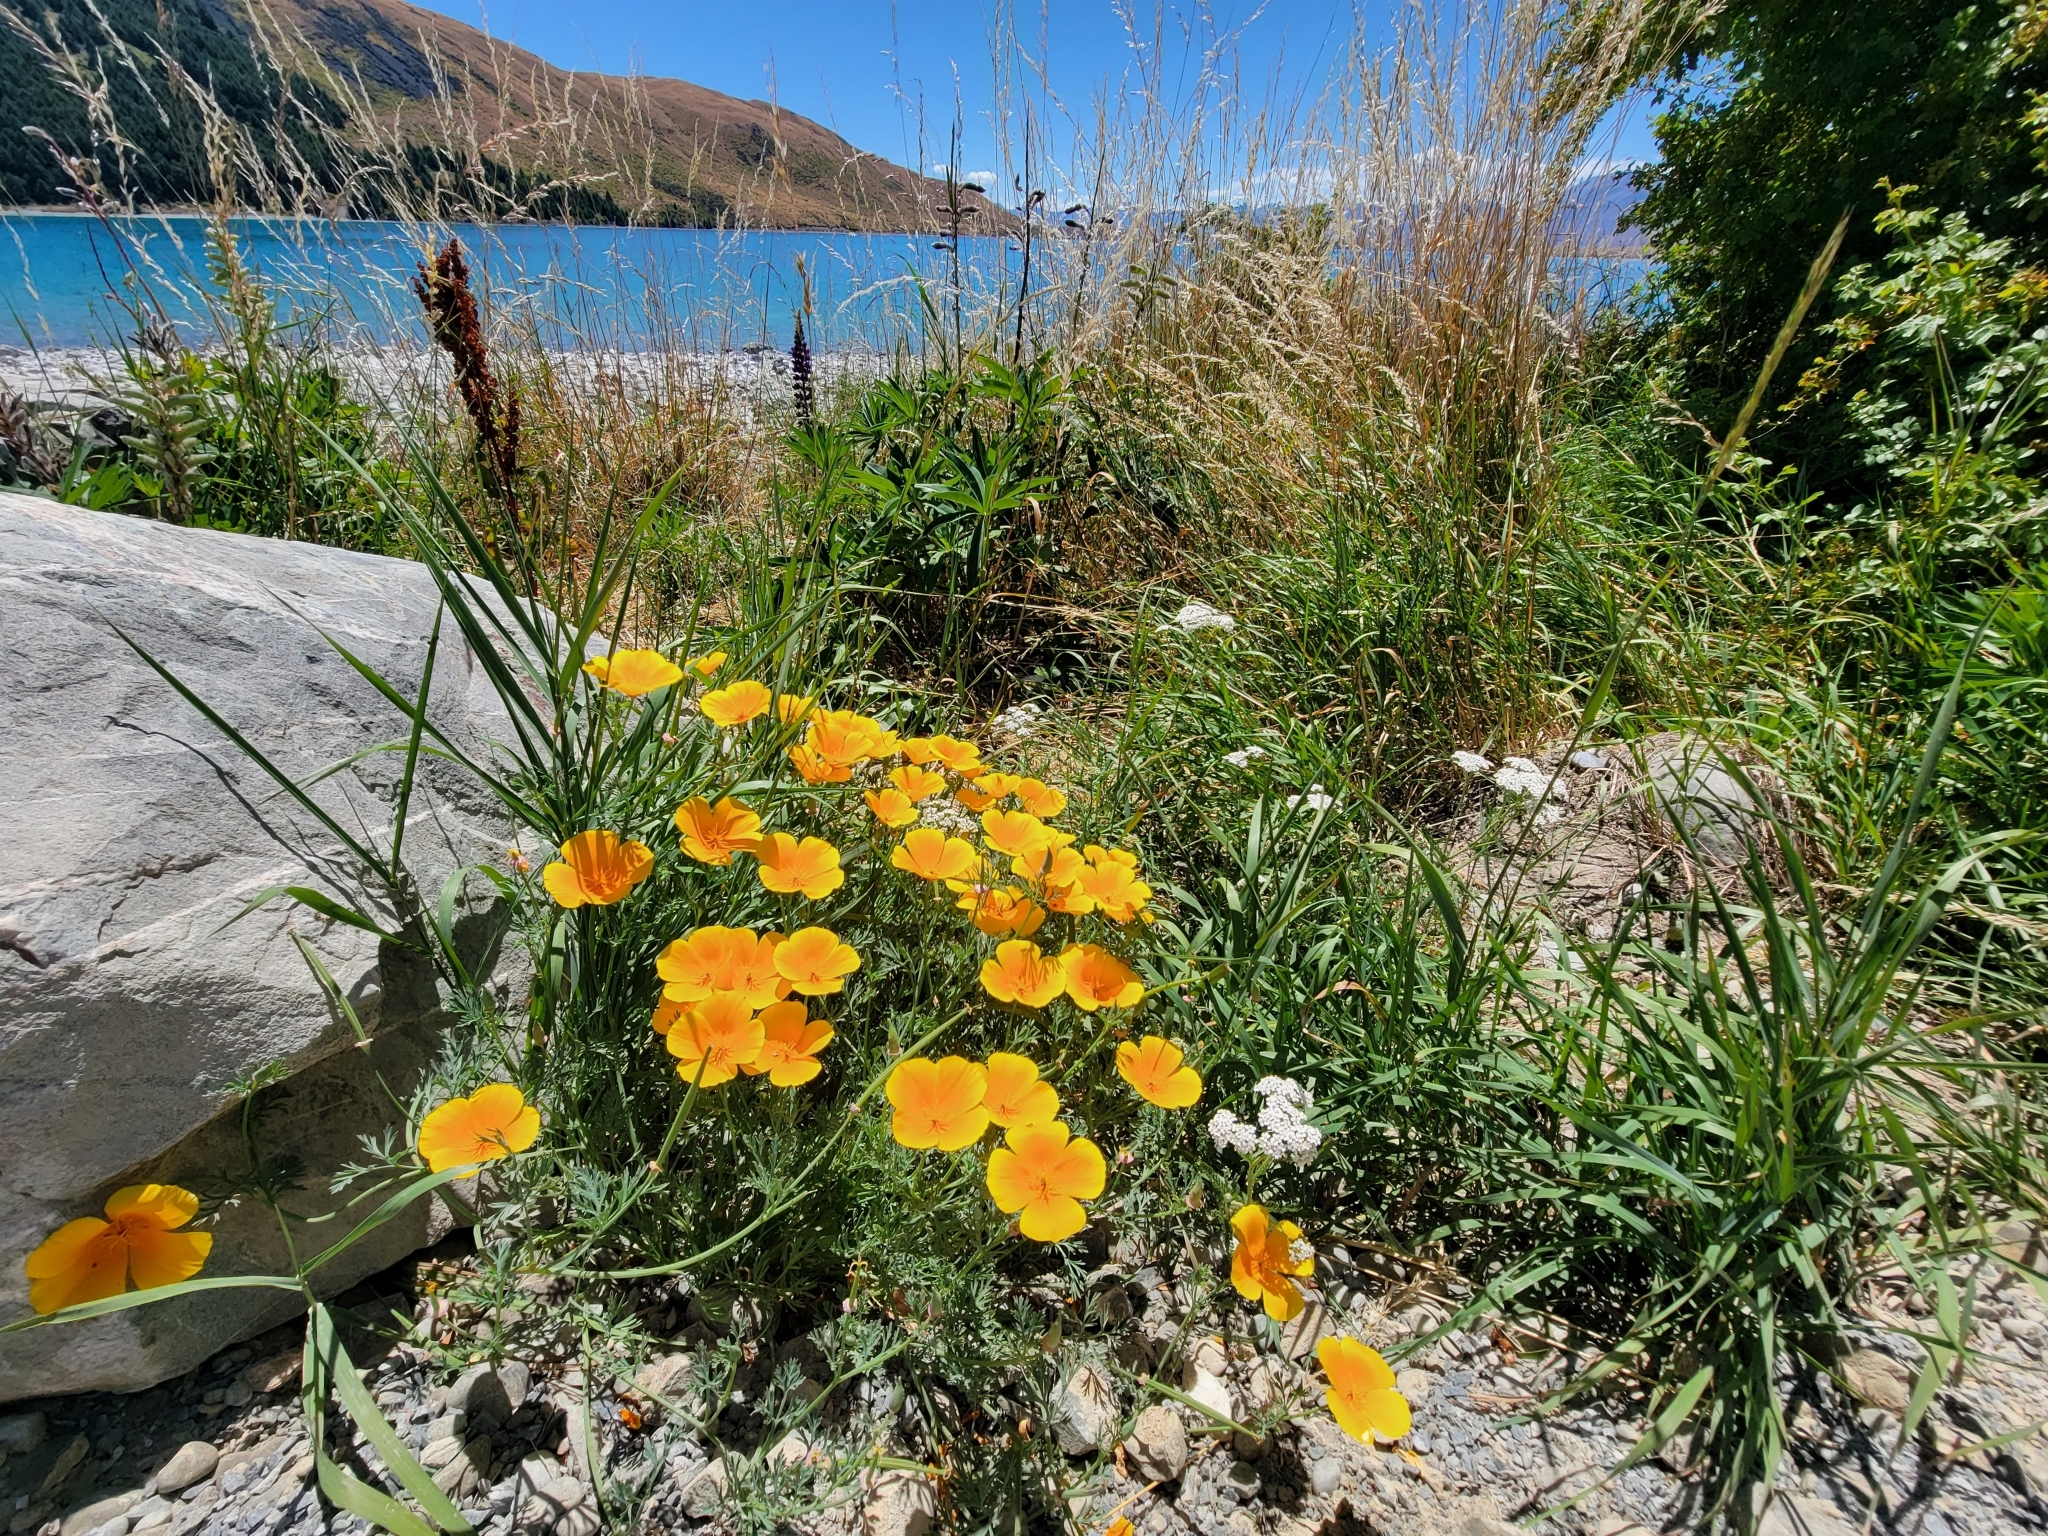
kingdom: Plantae
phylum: Tracheophyta
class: Magnoliopsida
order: Ranunculales
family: Papaveraceae
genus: Eschscholzia
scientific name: Eschscholzia californica
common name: California poppy
